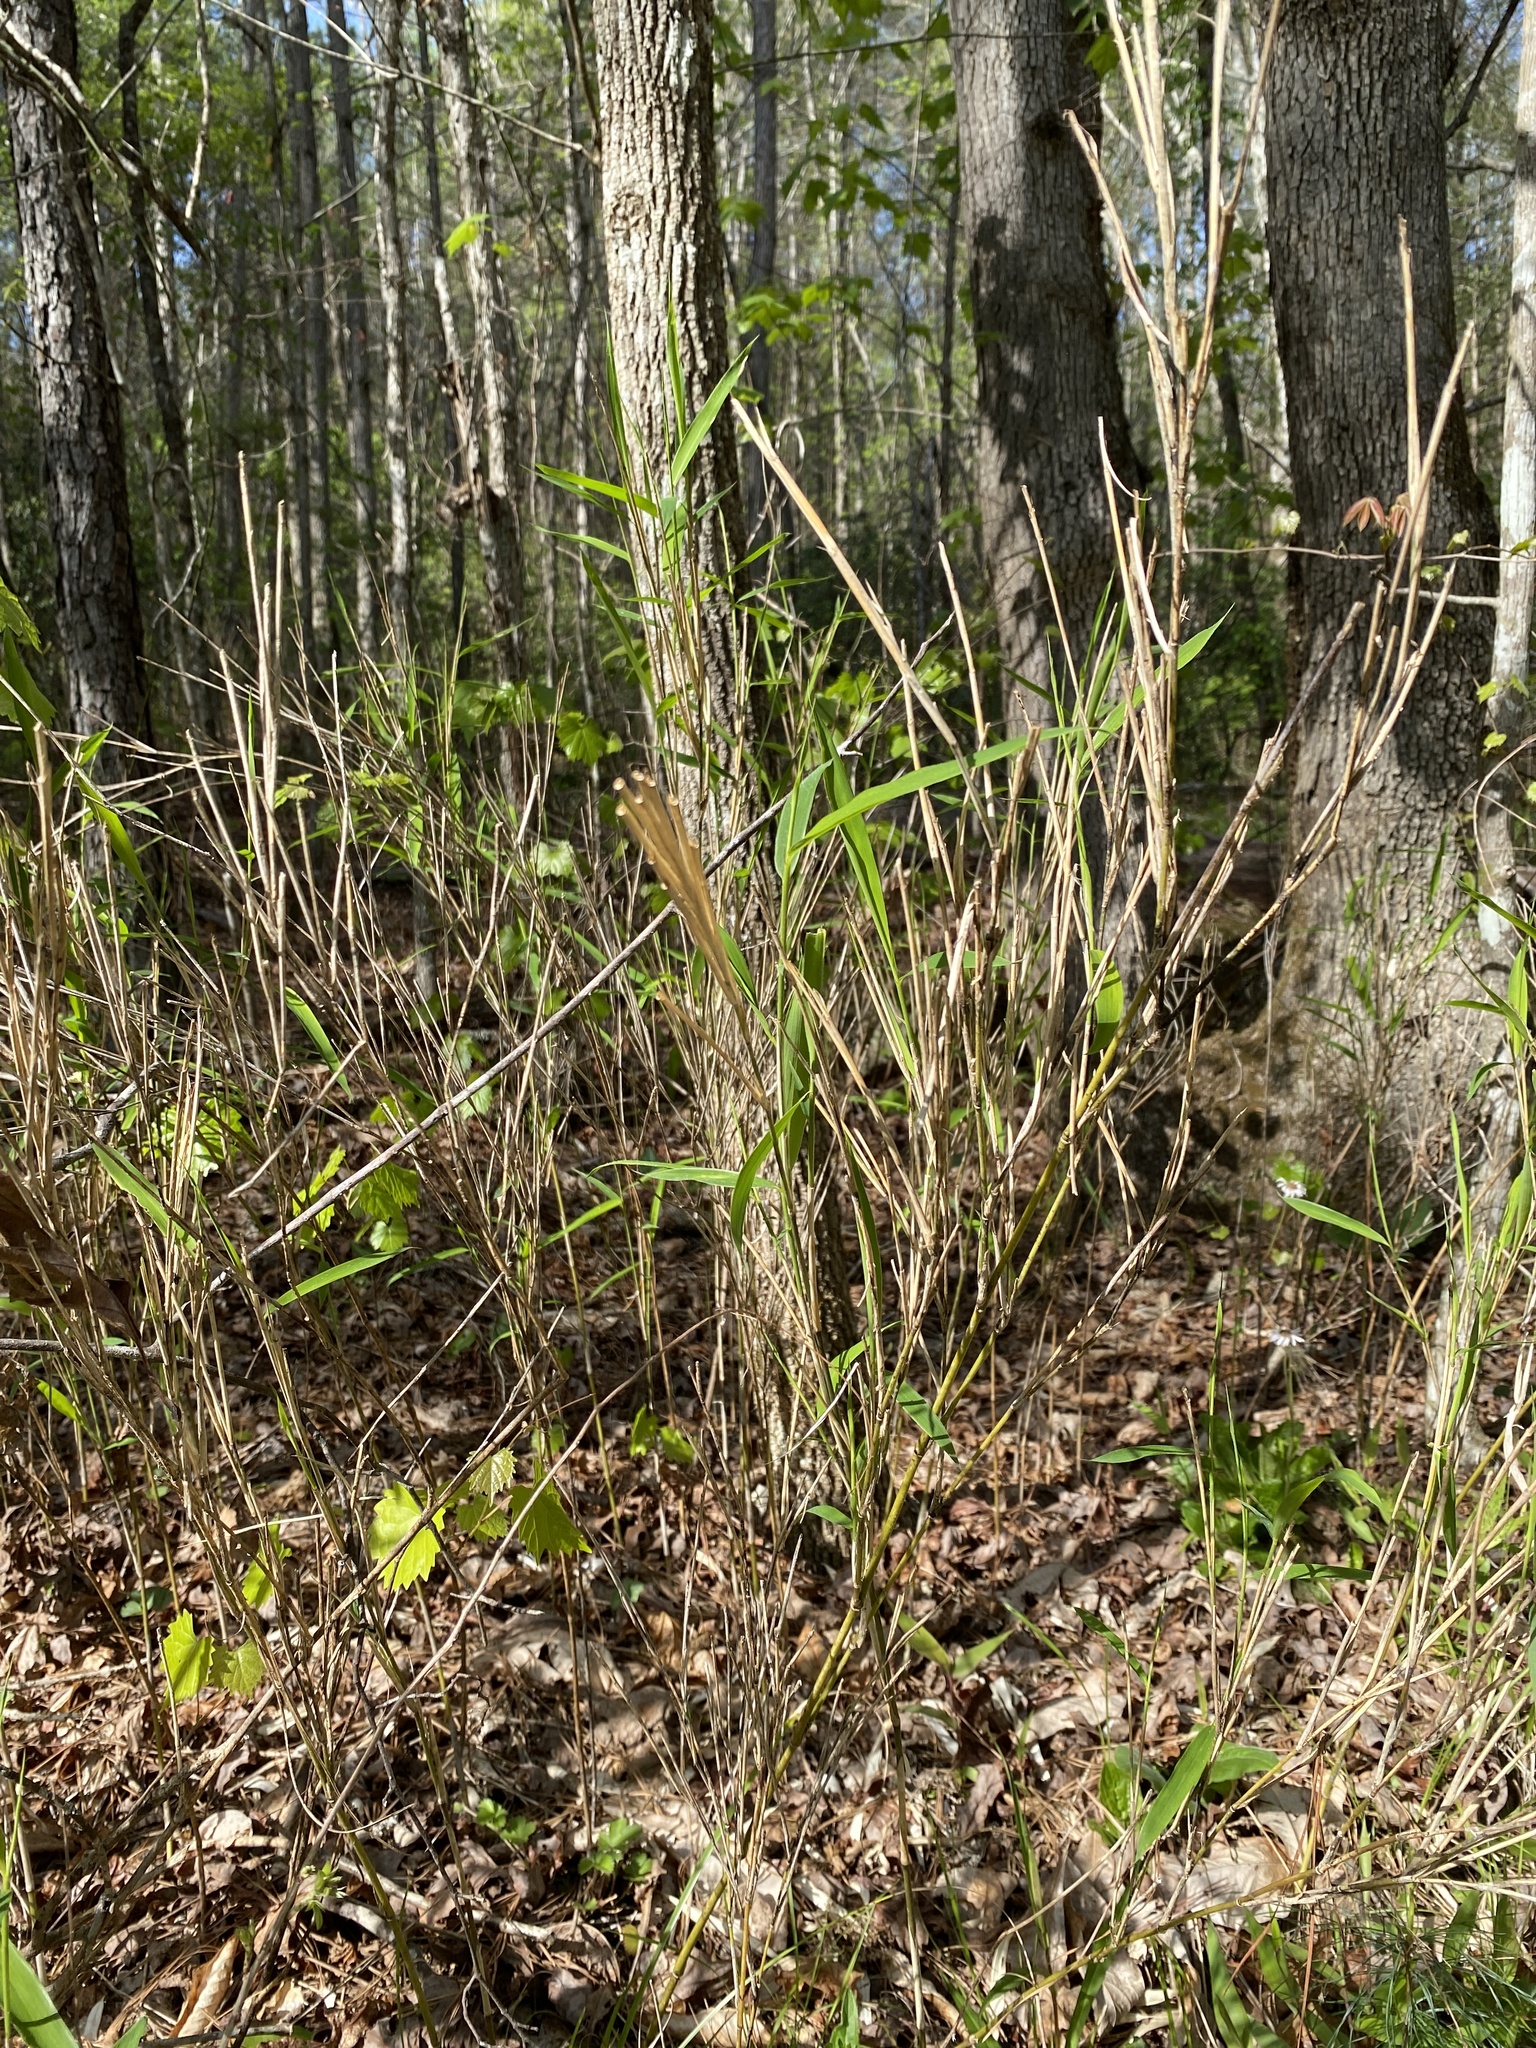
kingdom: Plantae
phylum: Tracheophyta
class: Liliopsida
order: Poales
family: Poaceae
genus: Arundinaria
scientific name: Arundinaria appalachiana
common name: Hill cane
